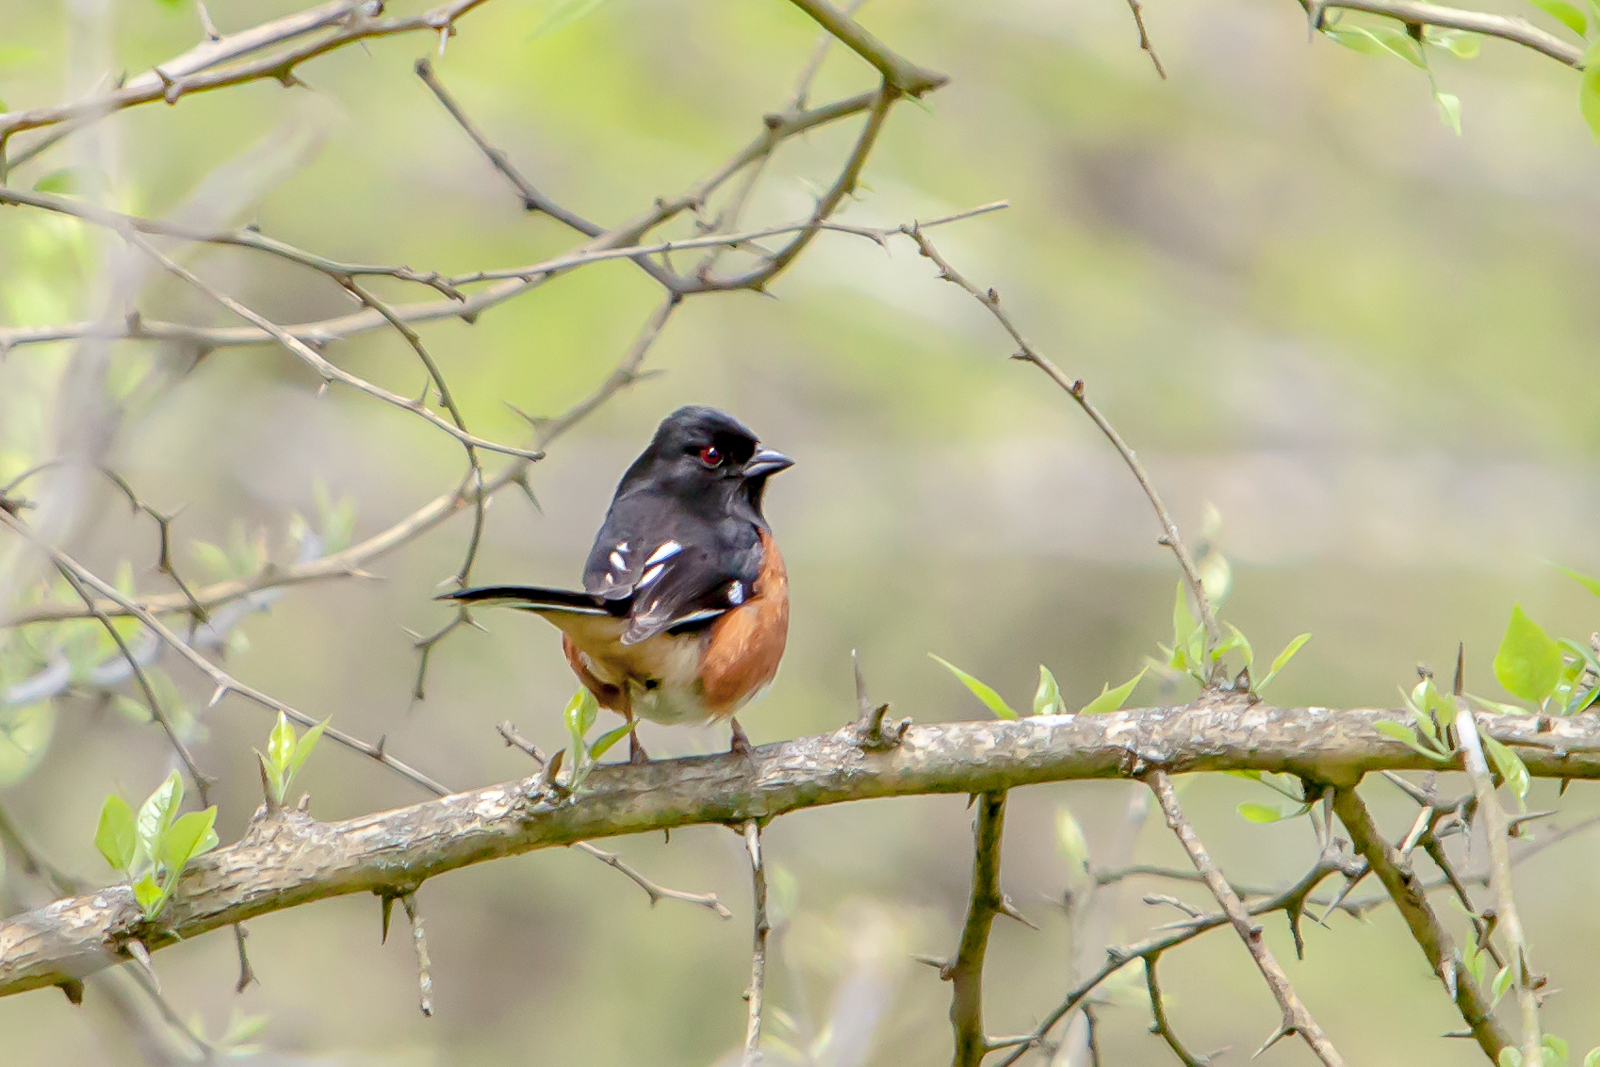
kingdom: Animalia
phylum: Chordata
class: Aves
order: Passeriformes
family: Passerellidae
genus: Pipilo
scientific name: Pipilo erythrophthalmus
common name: Eastern towhee
